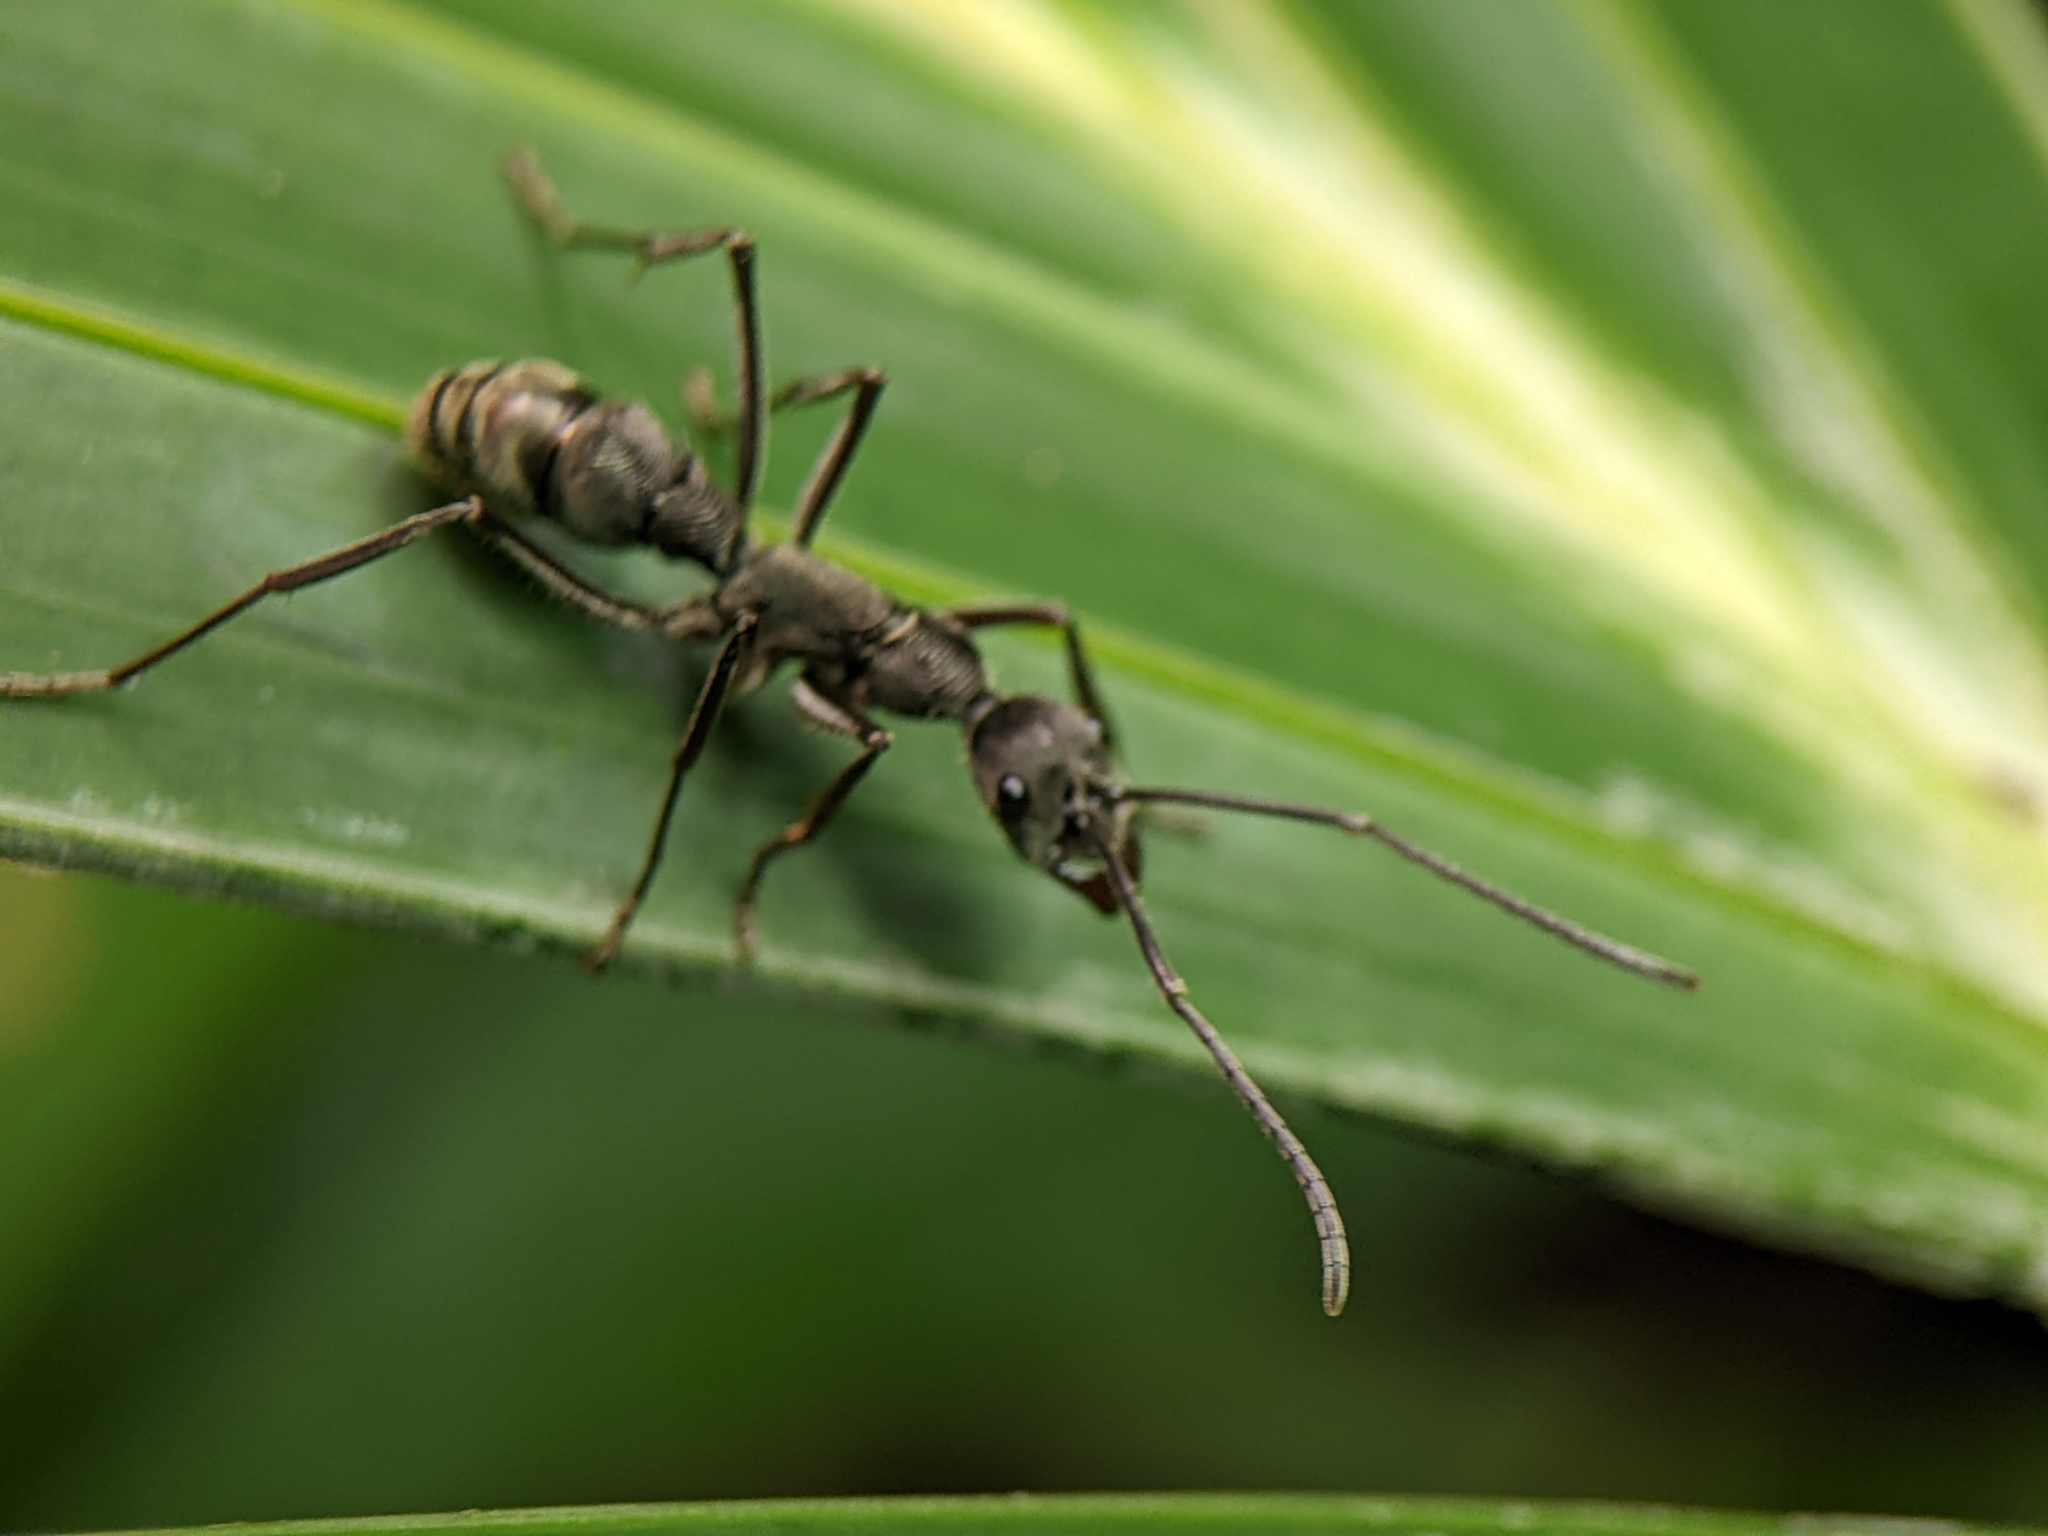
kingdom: Animalia
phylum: Arthropoda
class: Insecta
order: Hymenoptera
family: Formicidae
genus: Diacamma
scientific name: Diacamma geometricum
